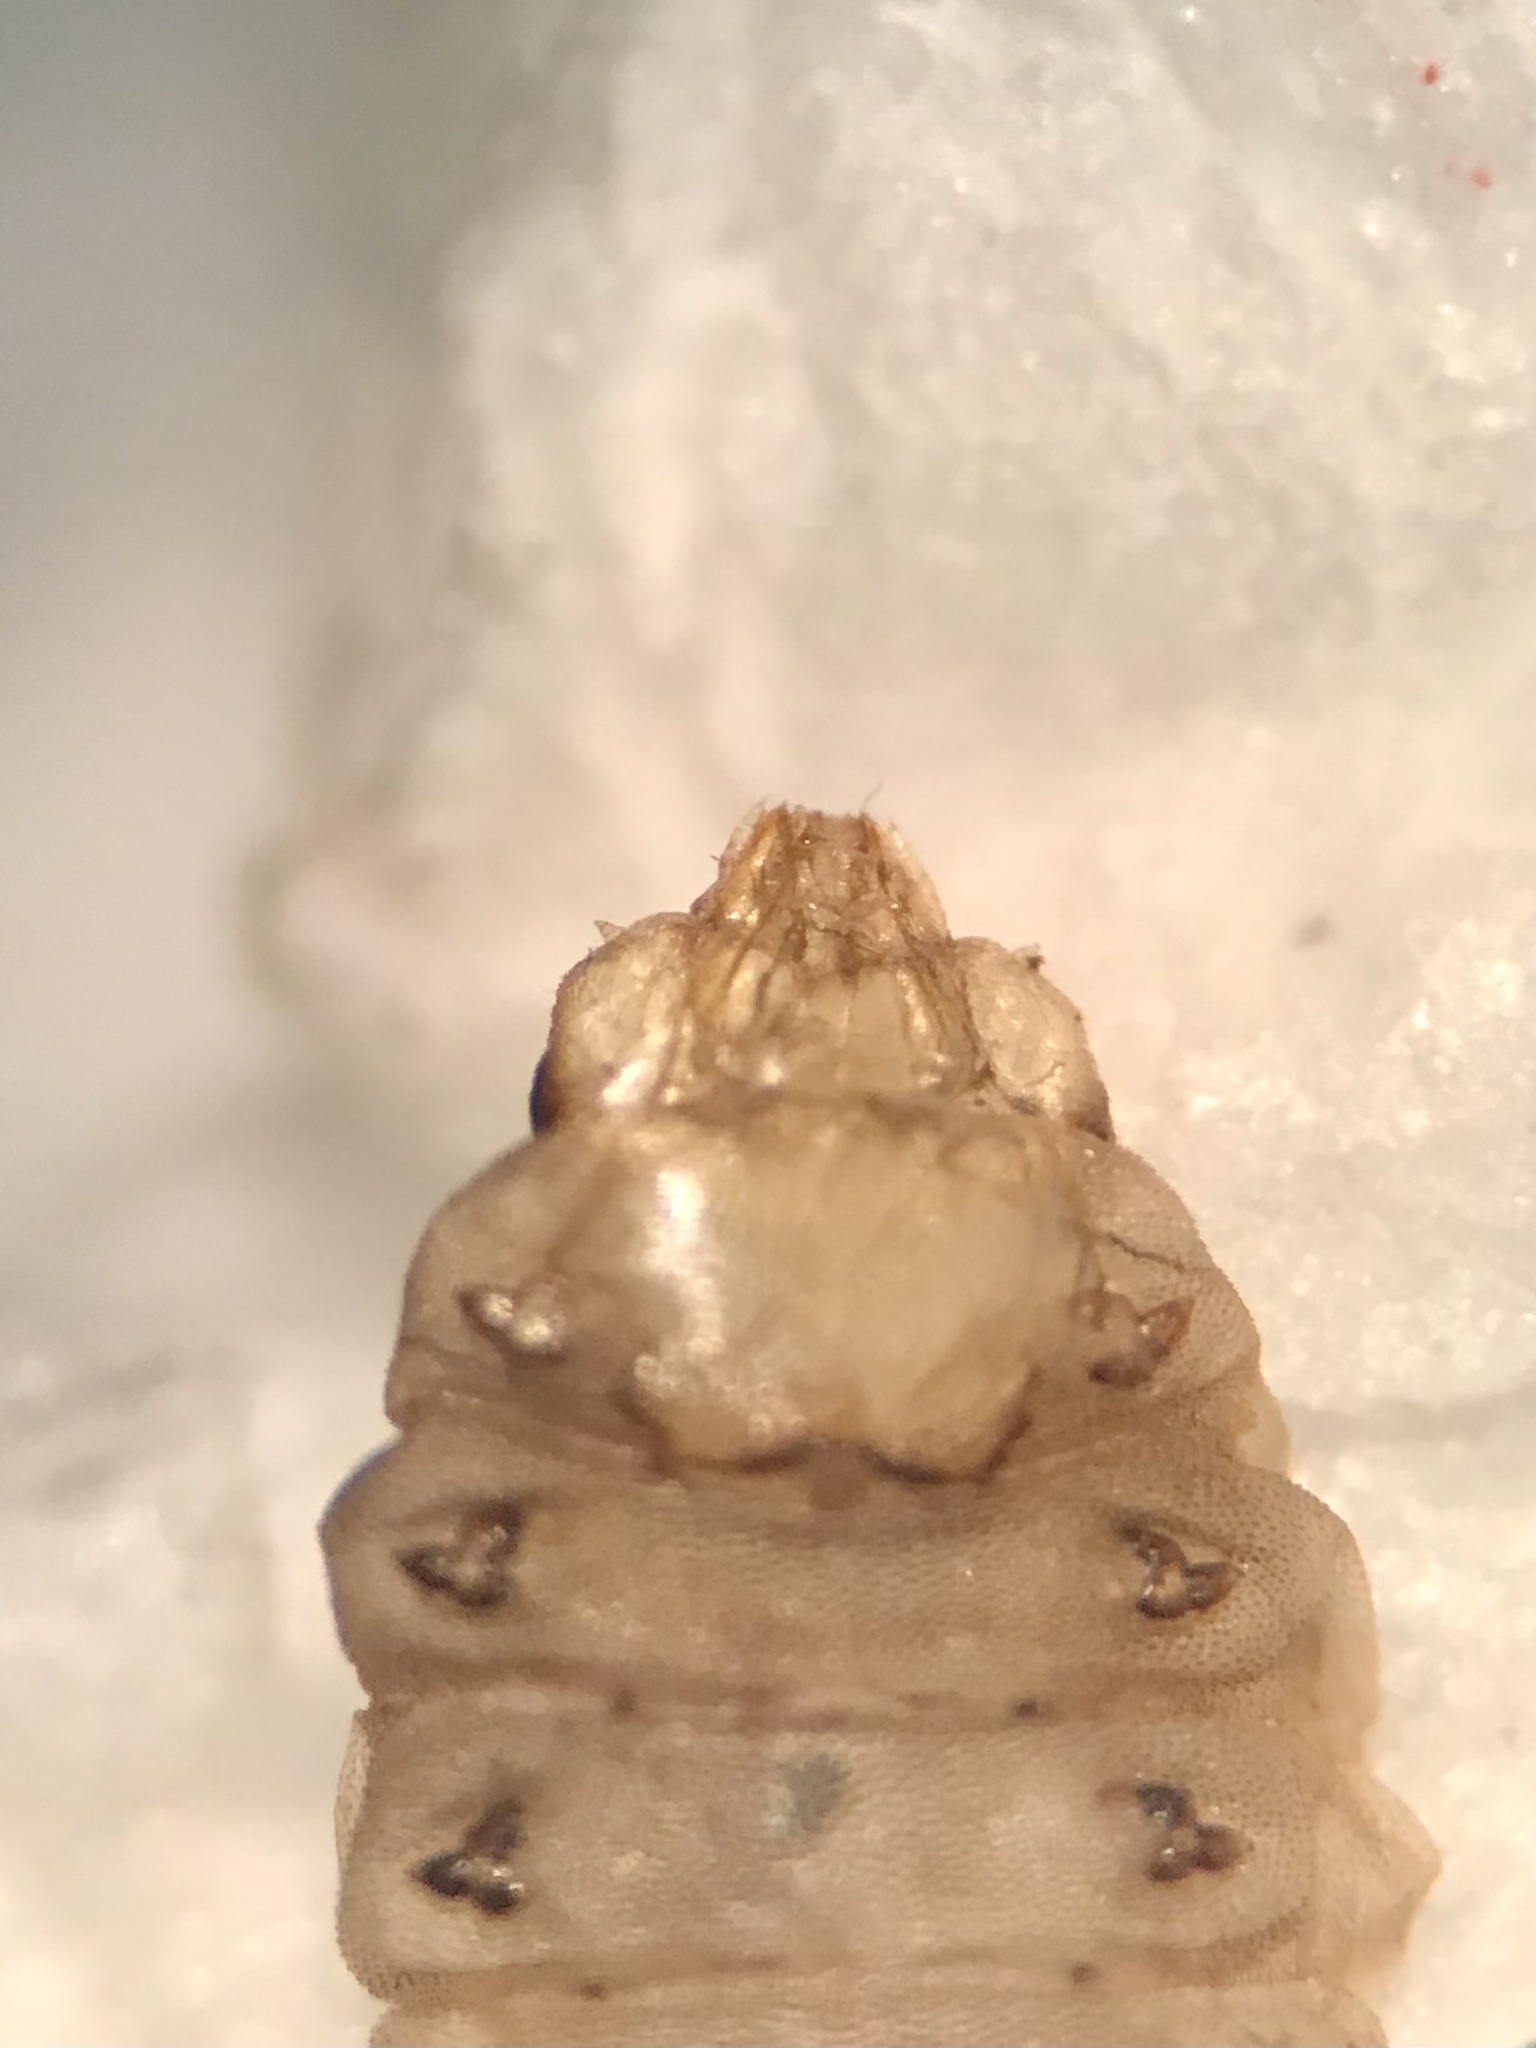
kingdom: Animalia
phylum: Arthropoda
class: Insecta
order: Hymenoptera
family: Tenthredinidae
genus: Profenusa
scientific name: Profenusa lucifex
